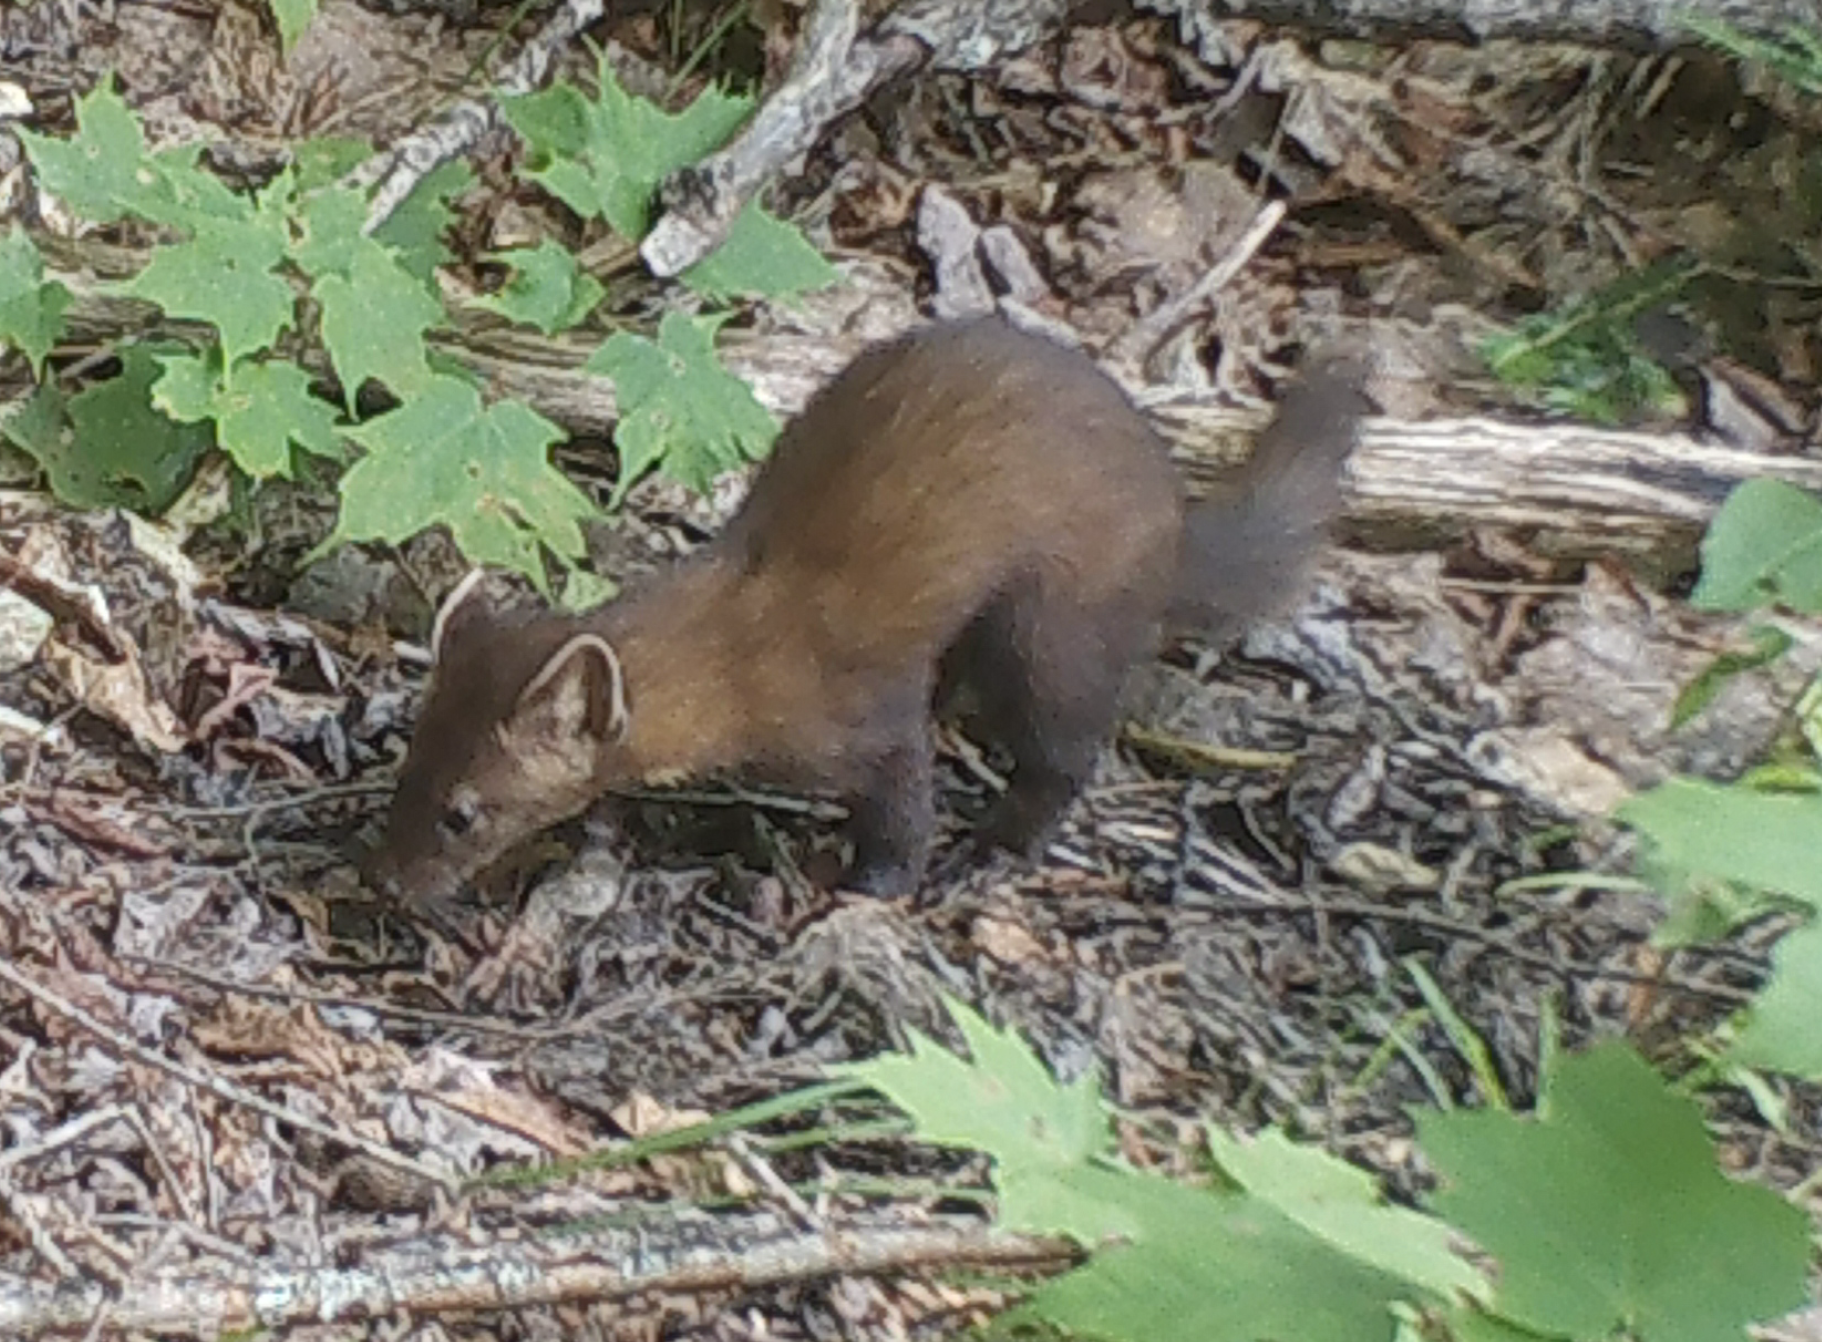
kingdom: Animalia
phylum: Chordata
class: Mammalia
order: Carnivora
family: Mustelidae
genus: Martes
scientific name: Martes americana
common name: American marten
